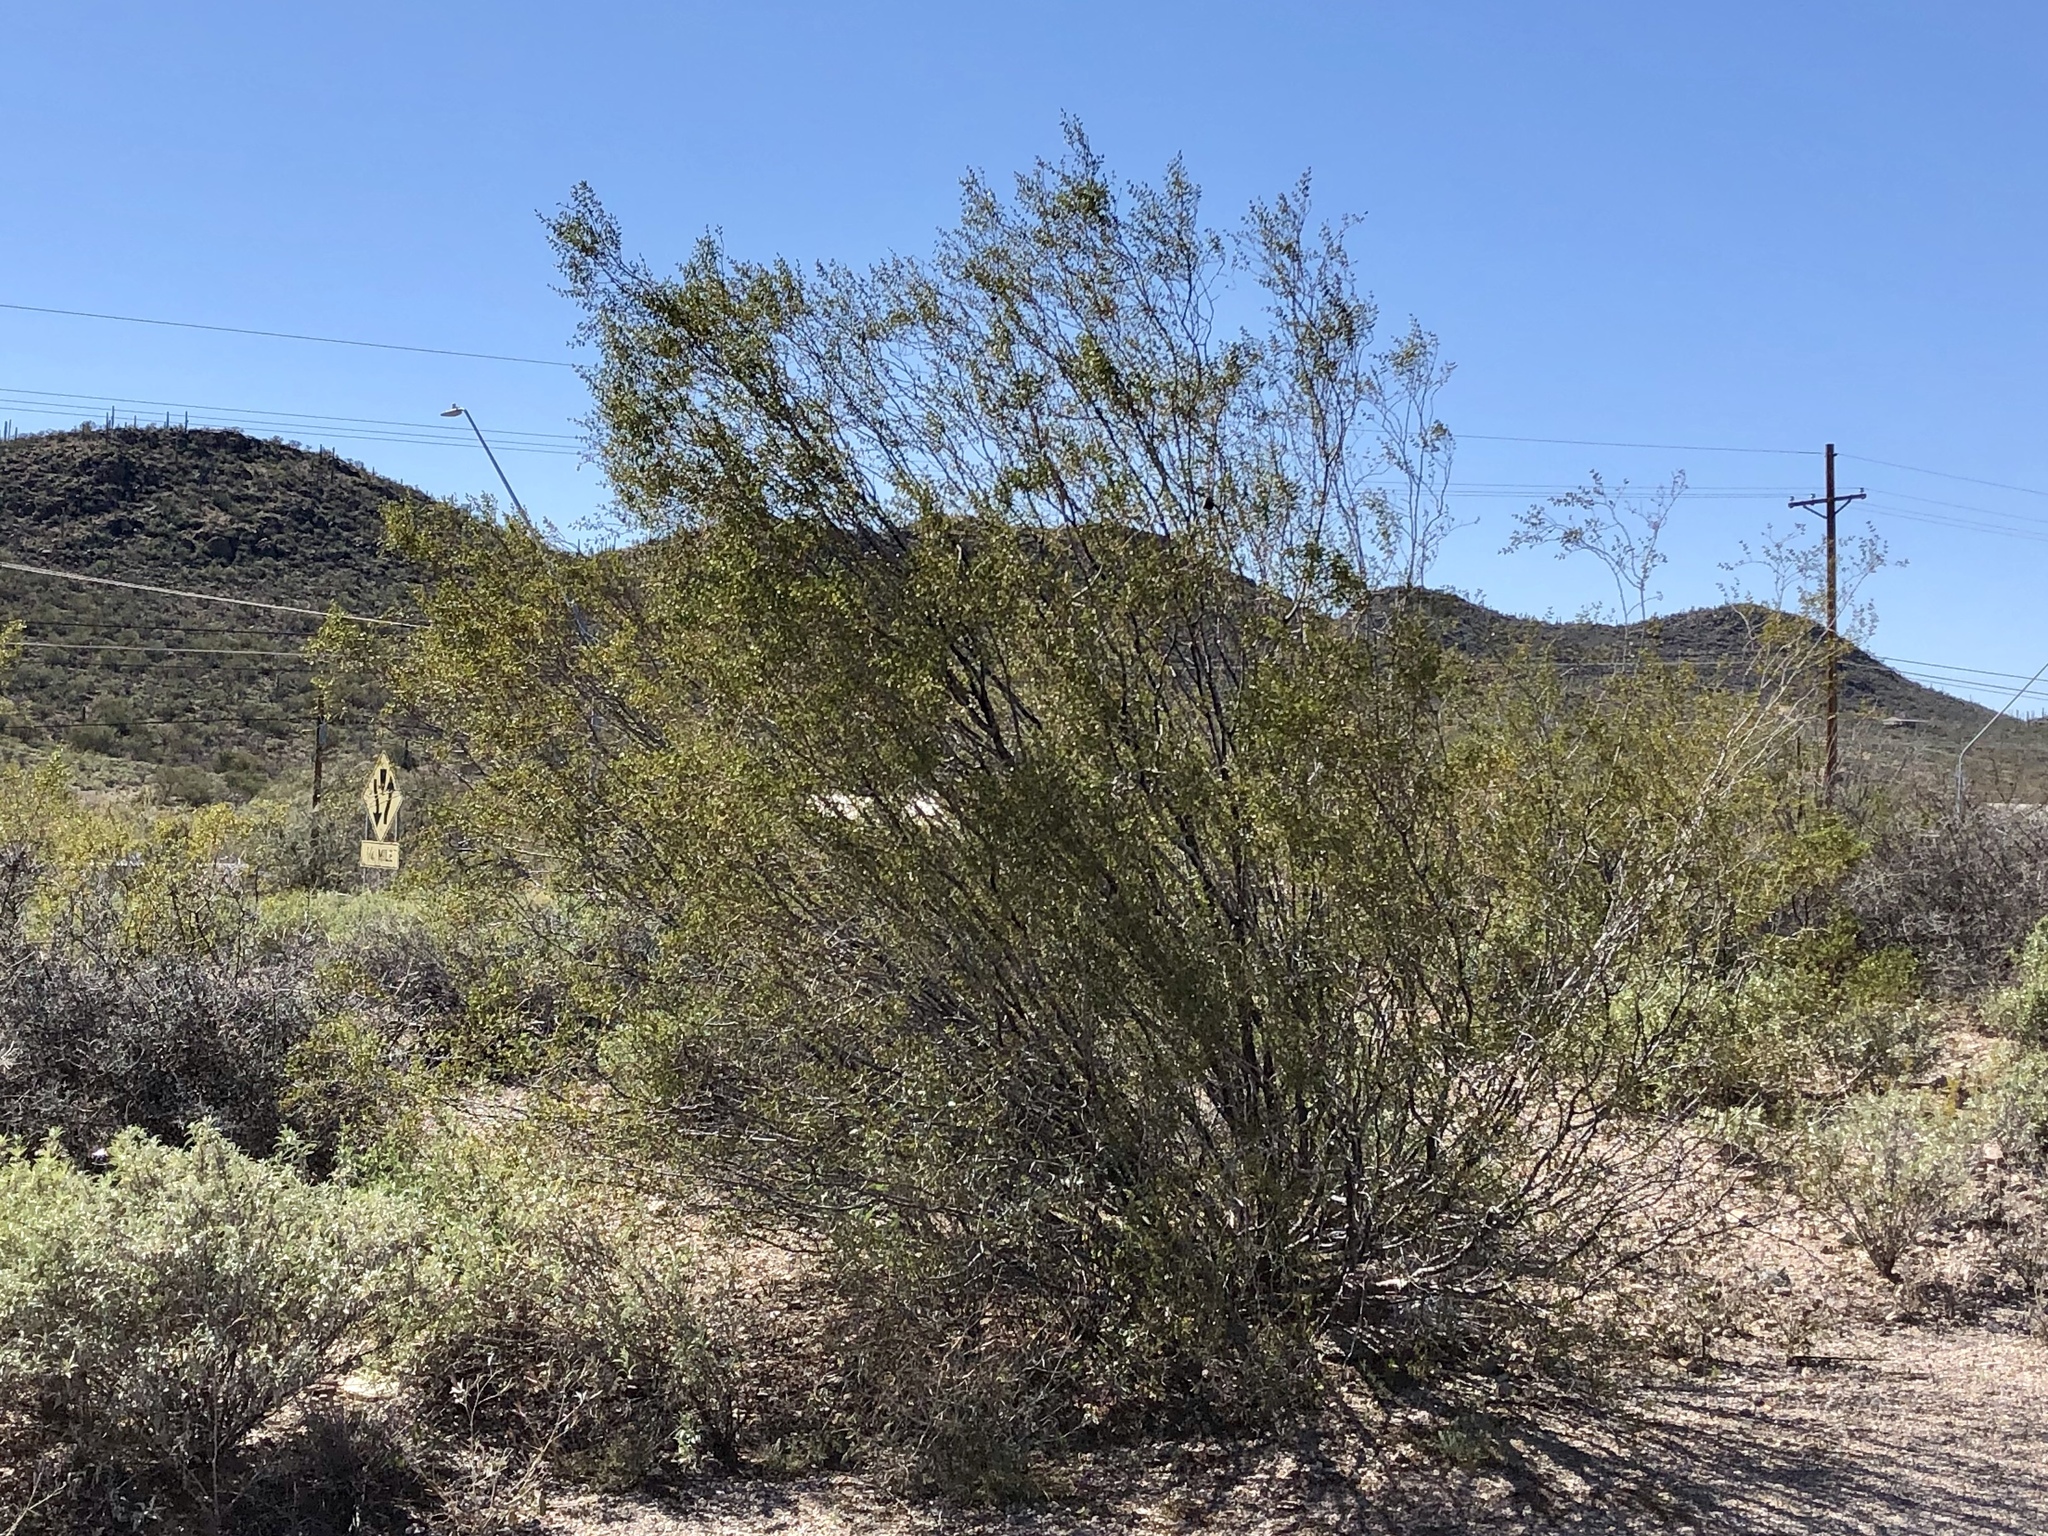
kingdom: Plantae
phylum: Tracheophyta
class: Magnoliopsida
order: Zygophyllales
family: Zygophyllaceae
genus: Larrea
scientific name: Larrea tridentata
